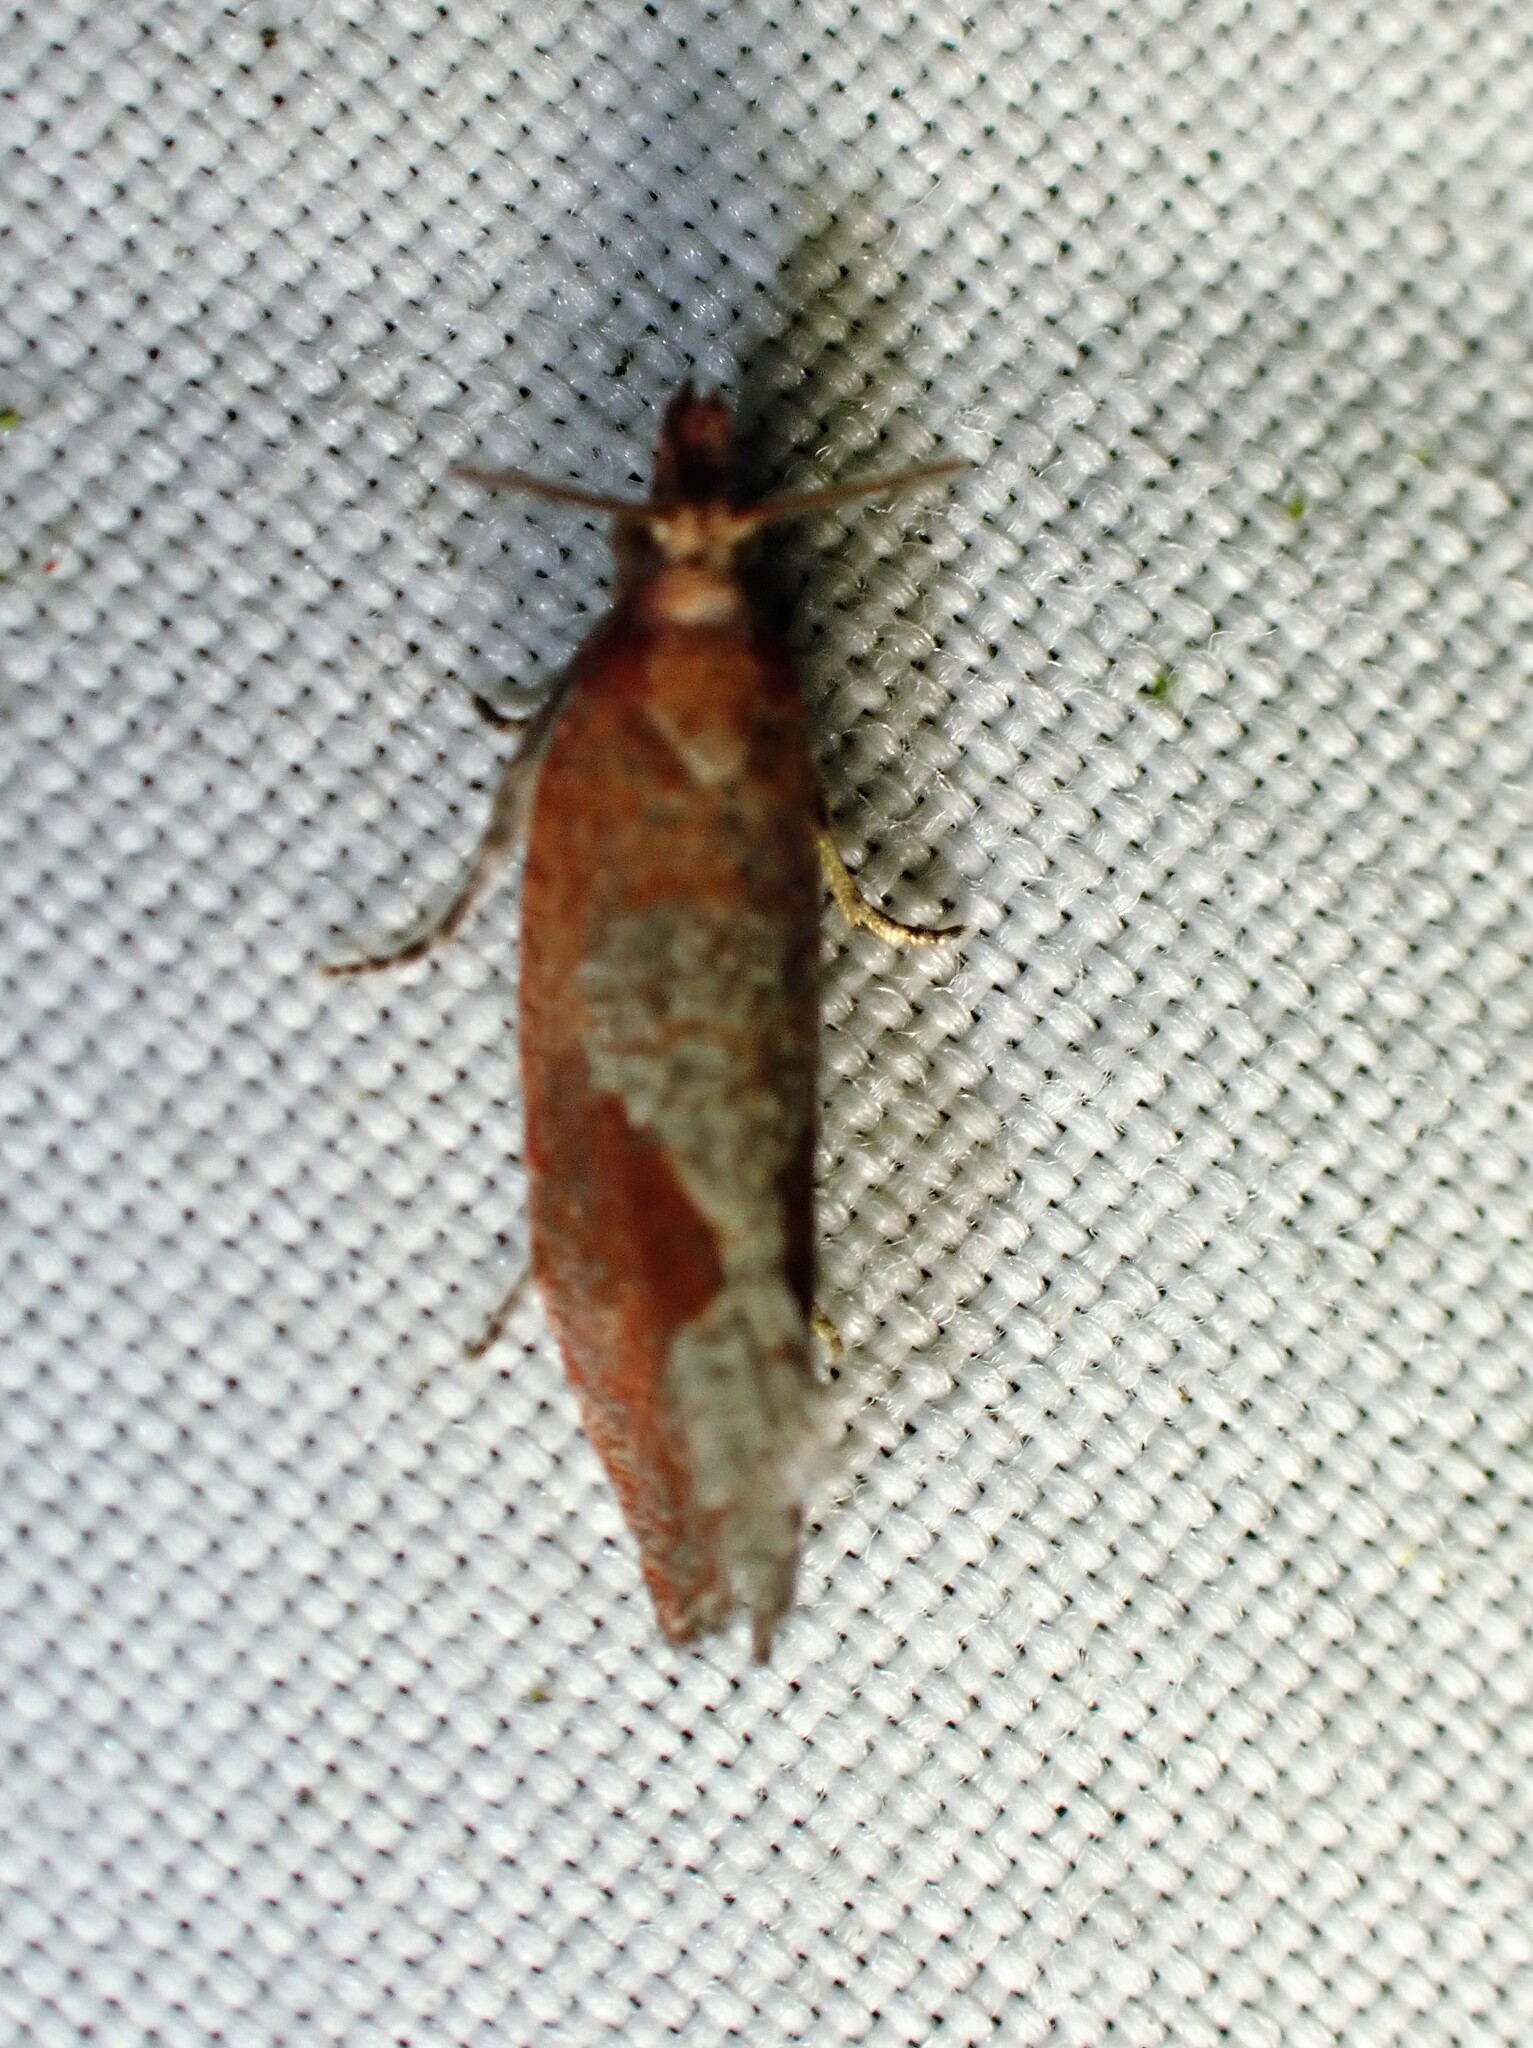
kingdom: Animalia
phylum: Arthropoda
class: Insecta
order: Lepidoptera
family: Tortricidae
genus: Epinotia
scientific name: Epinotia septemberana
